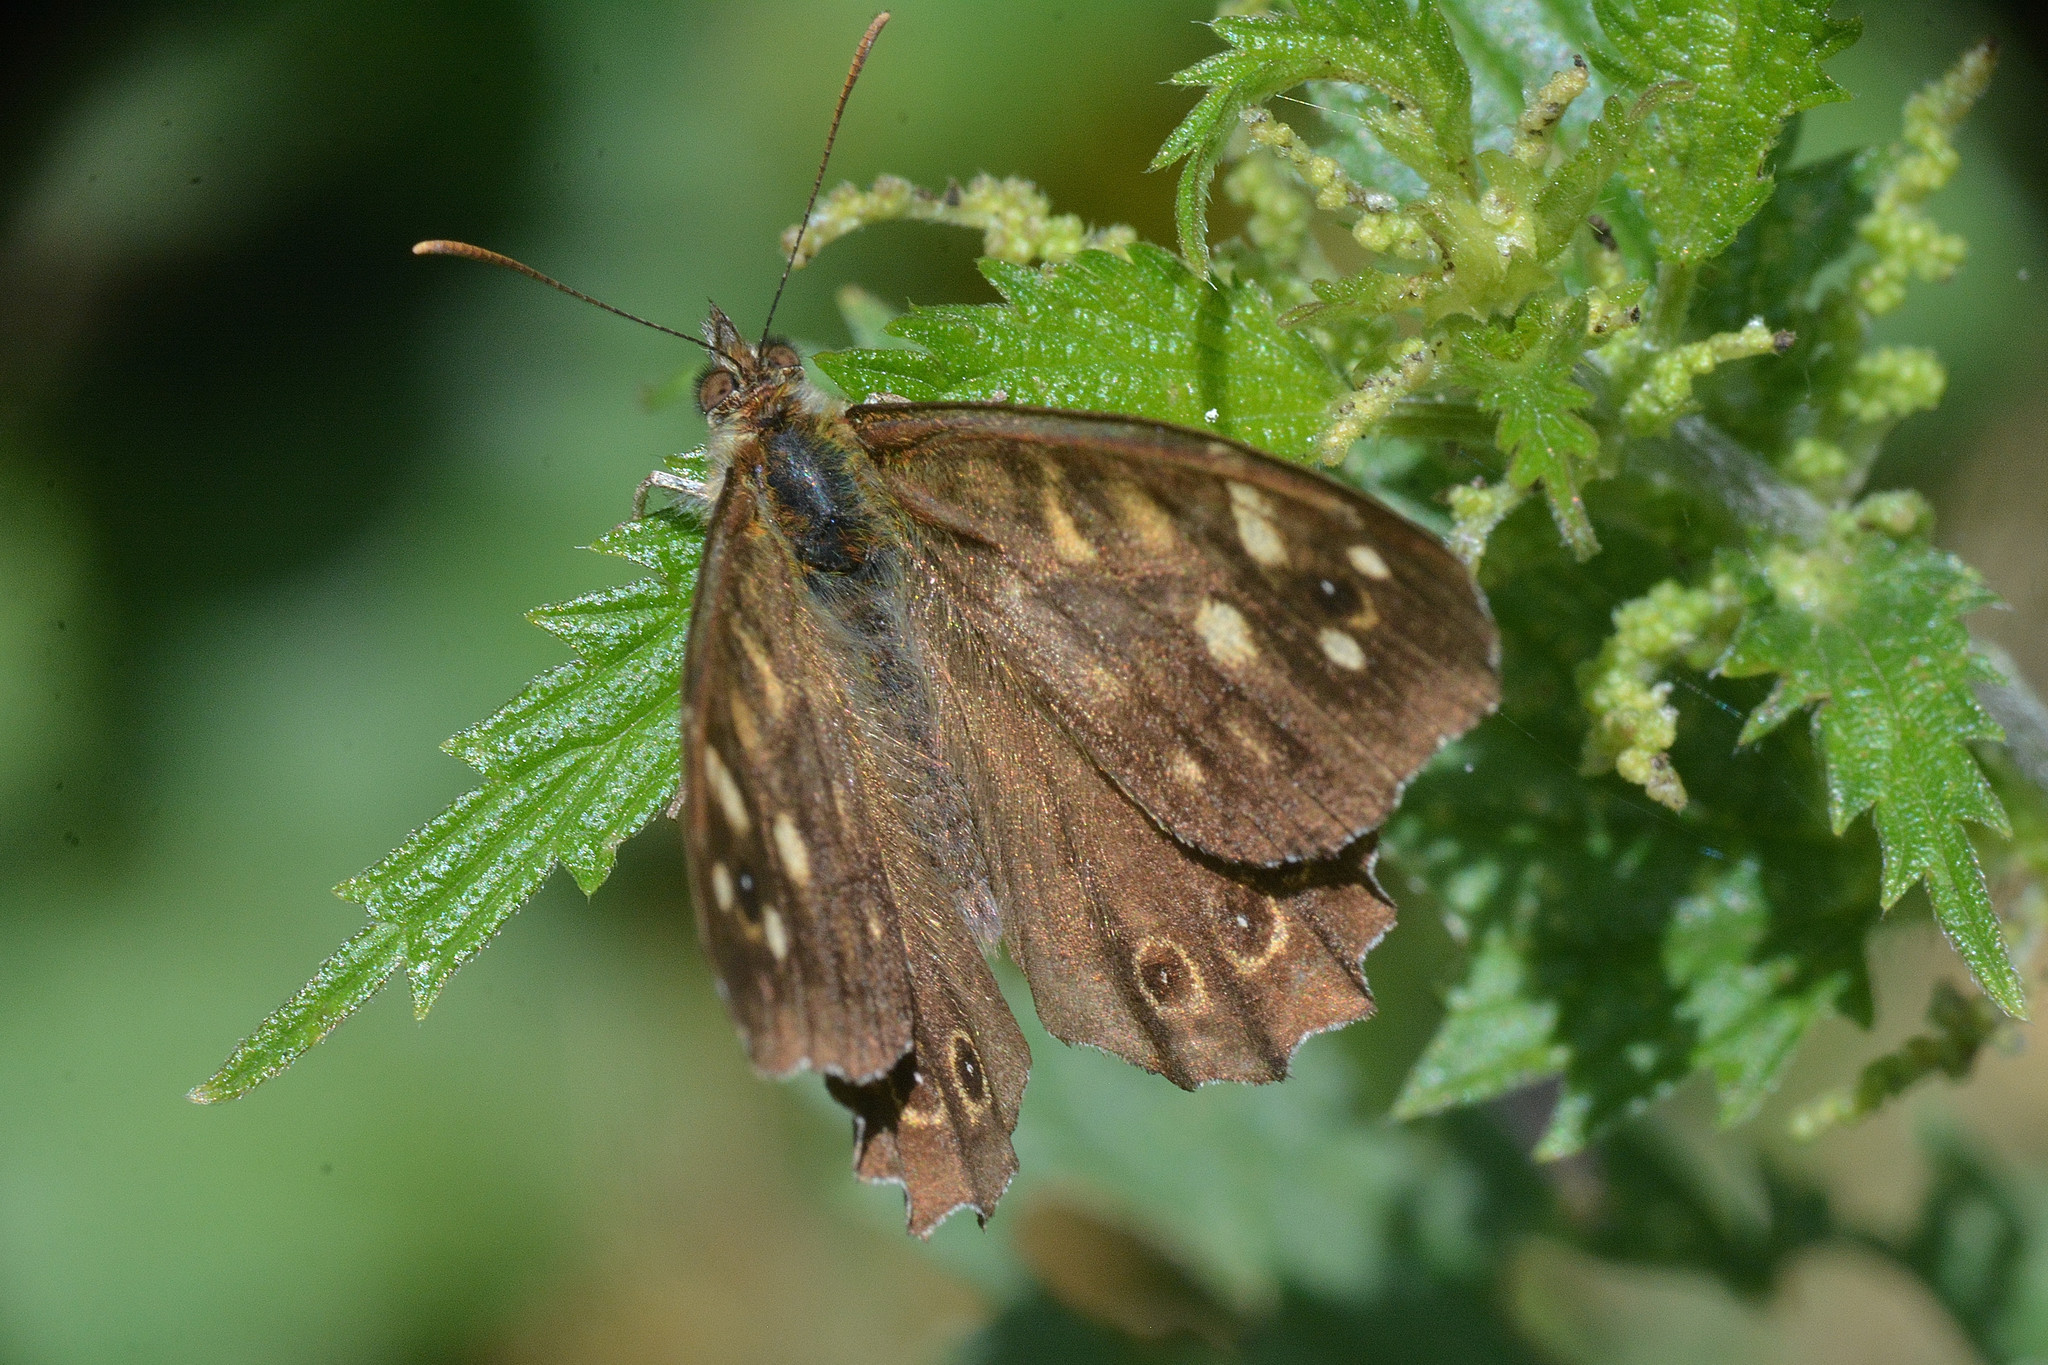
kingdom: Animalia
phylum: Arthropoda
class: Insecta
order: Lepidoptera
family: Nymphalidae
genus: Pararge
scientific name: Pararge aegeria
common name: Speckled wood
